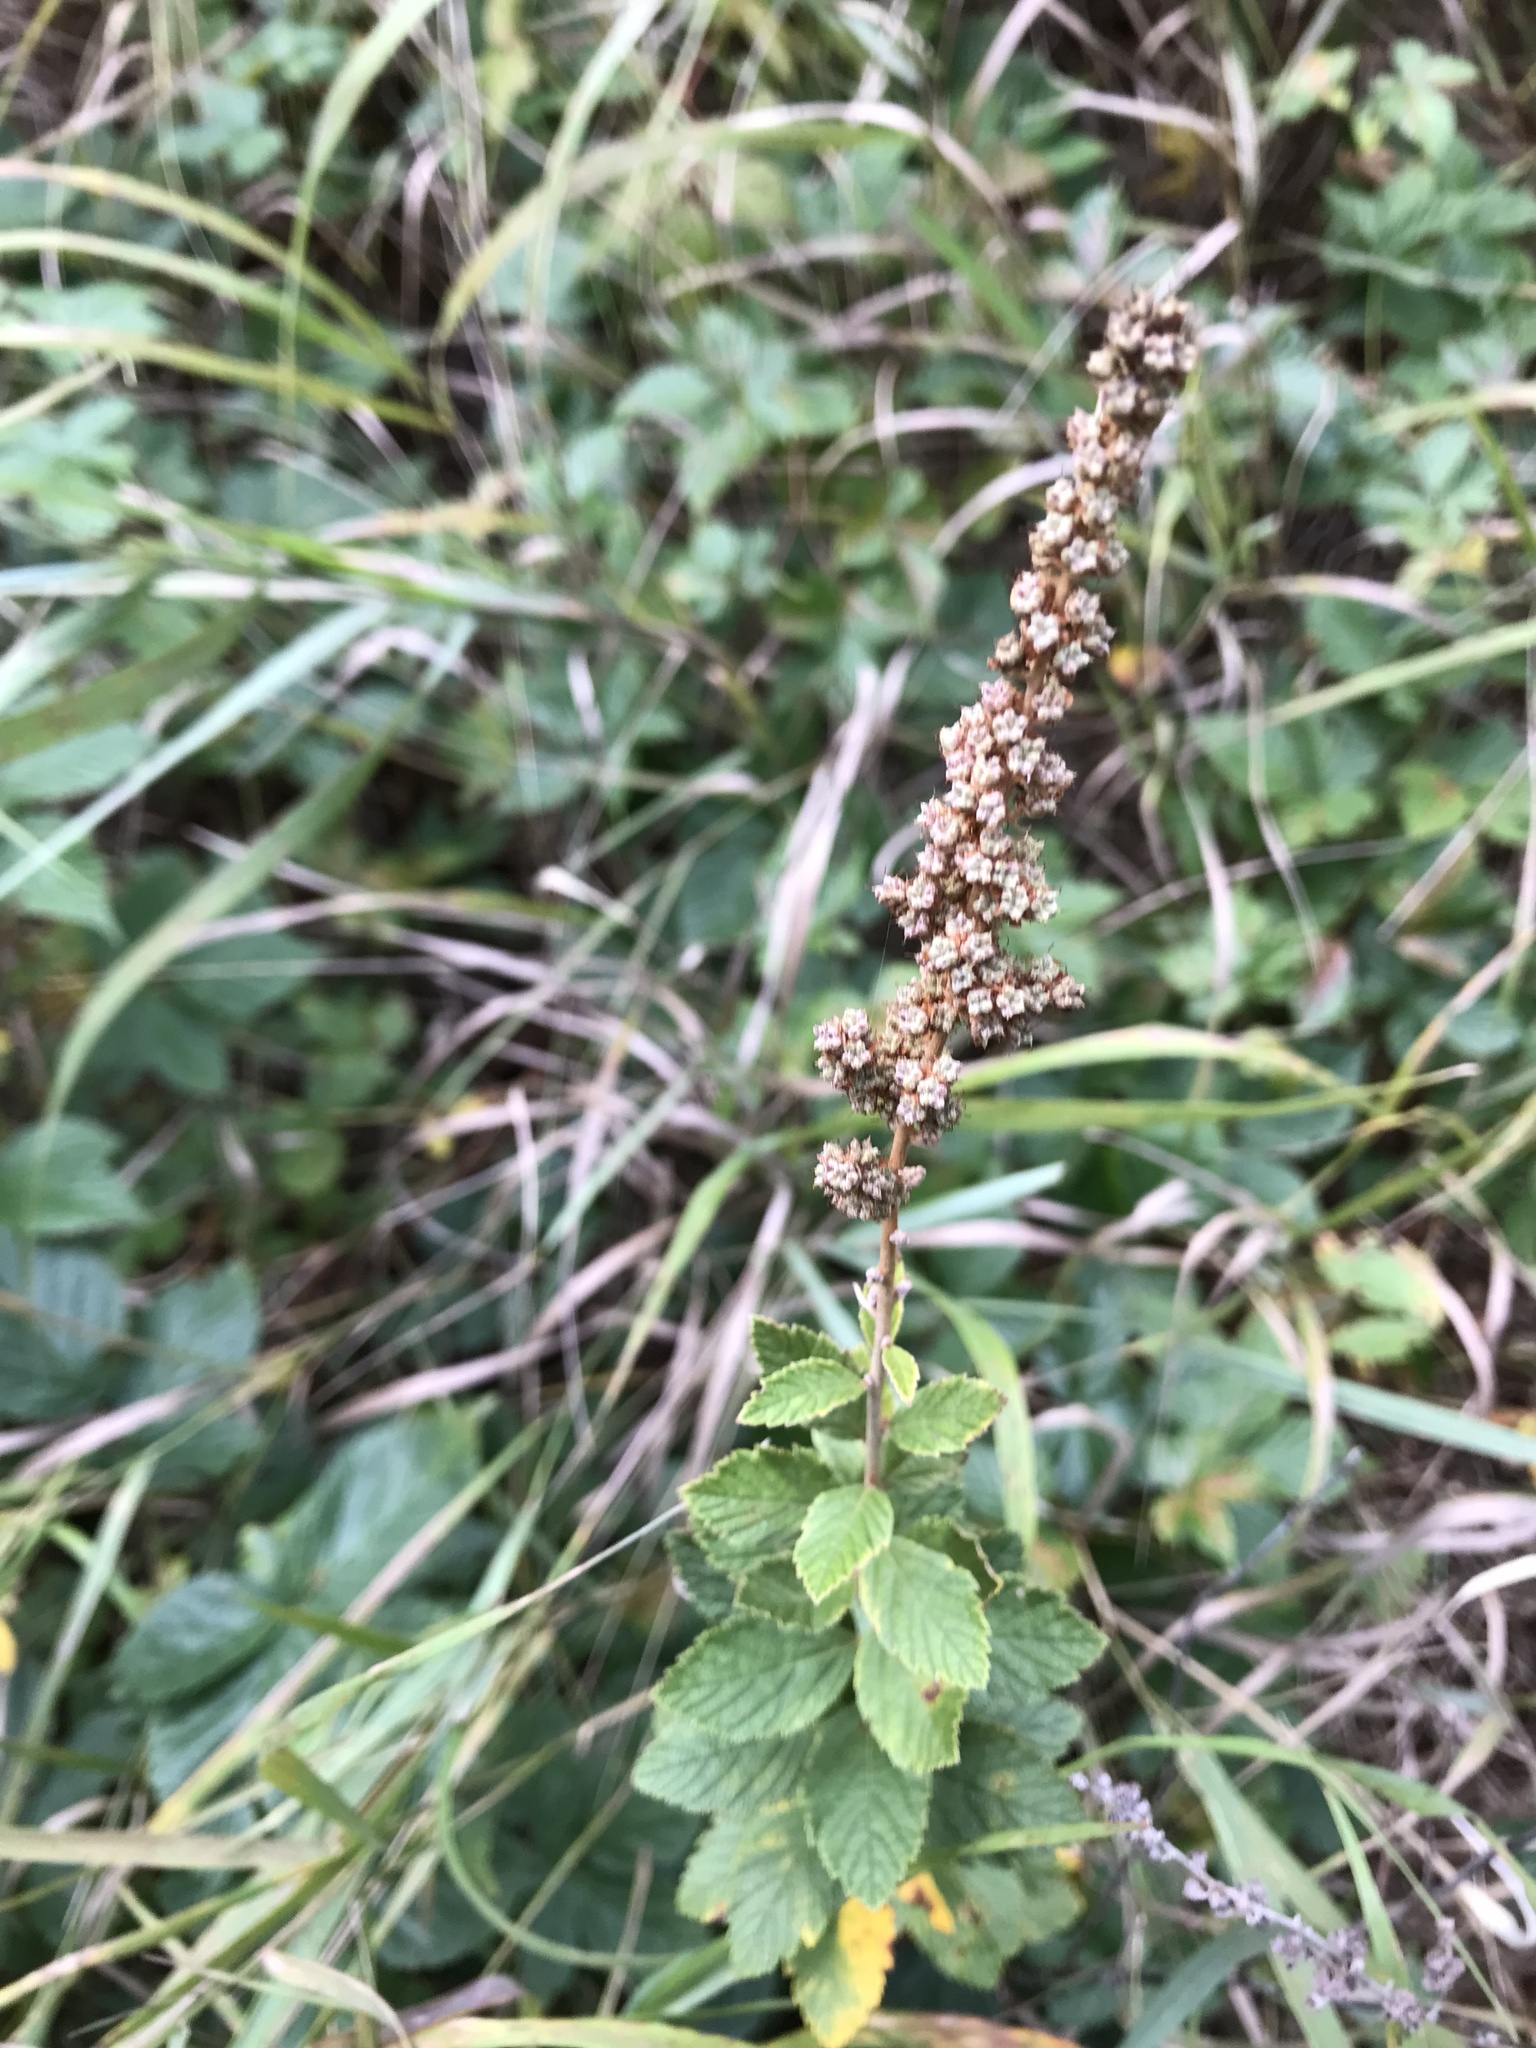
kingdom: Plantae
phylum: Tracheophyta
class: Magnoliopsida
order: Rosales
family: Rosaceae
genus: Spiraea
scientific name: Spiraea tomentosa
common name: Hardhack
